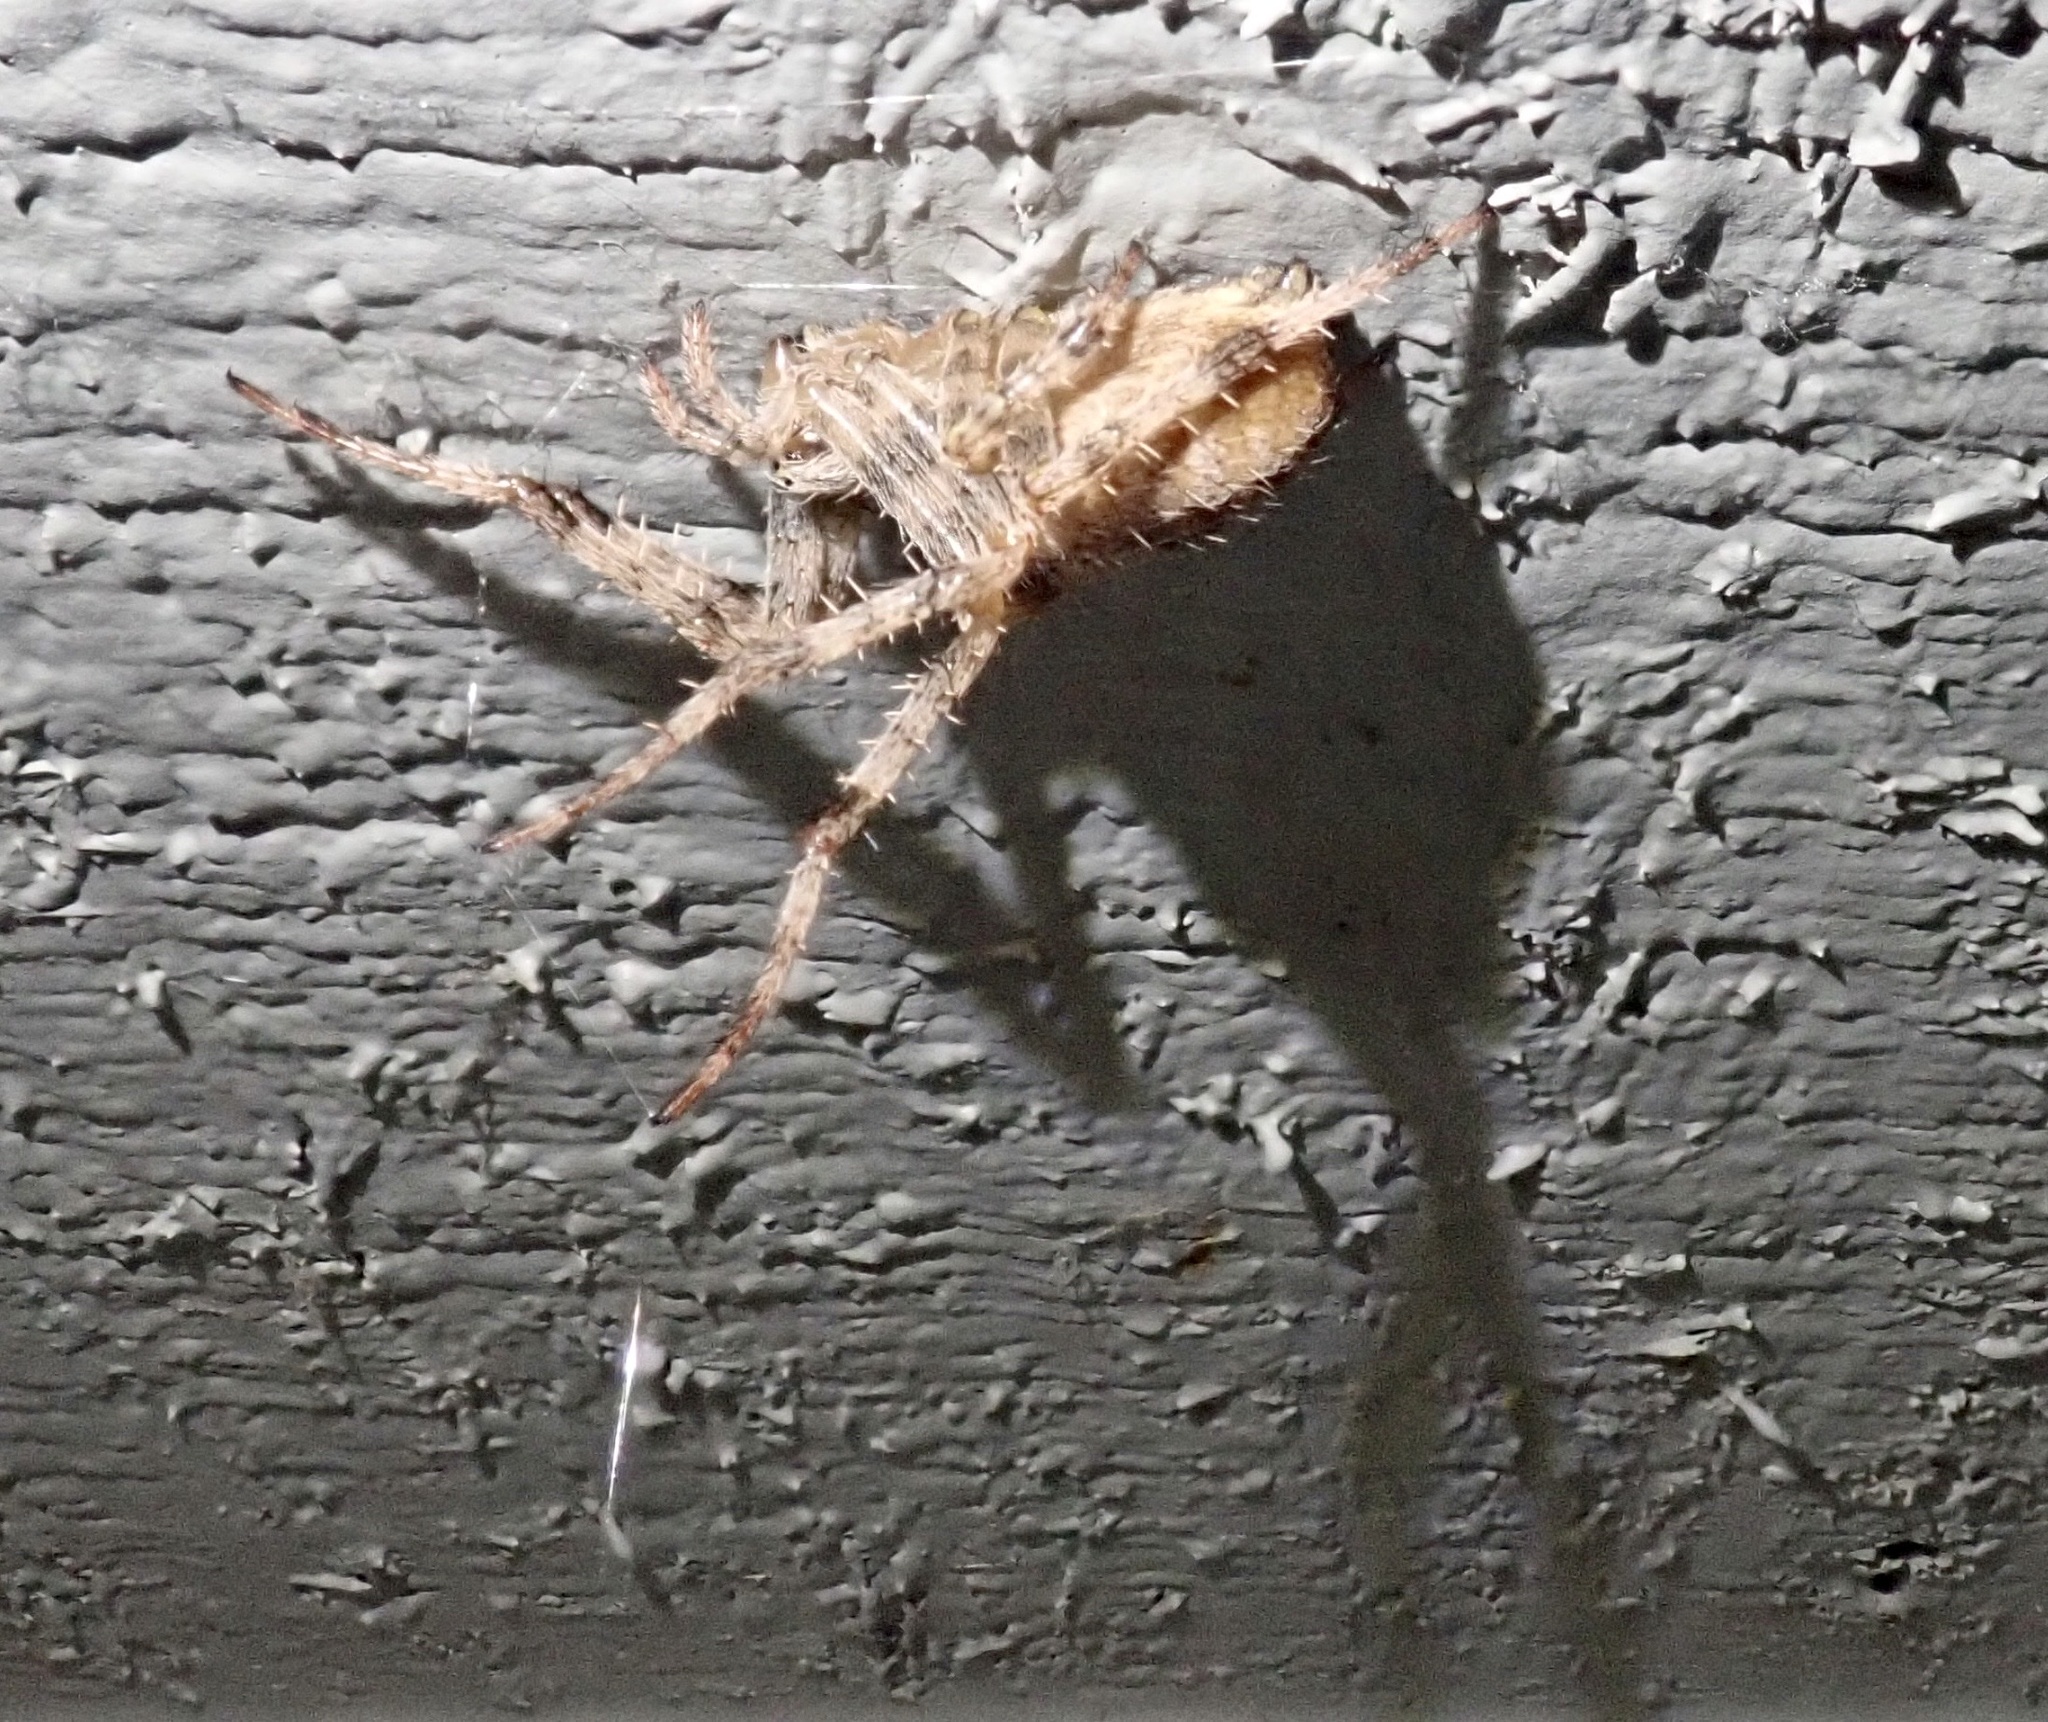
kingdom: Animalia
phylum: Arthropoda
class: Arachnida
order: Araneae
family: Araneidae
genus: Araneus
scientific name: Araneus diadematus
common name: Cross orbweaver
